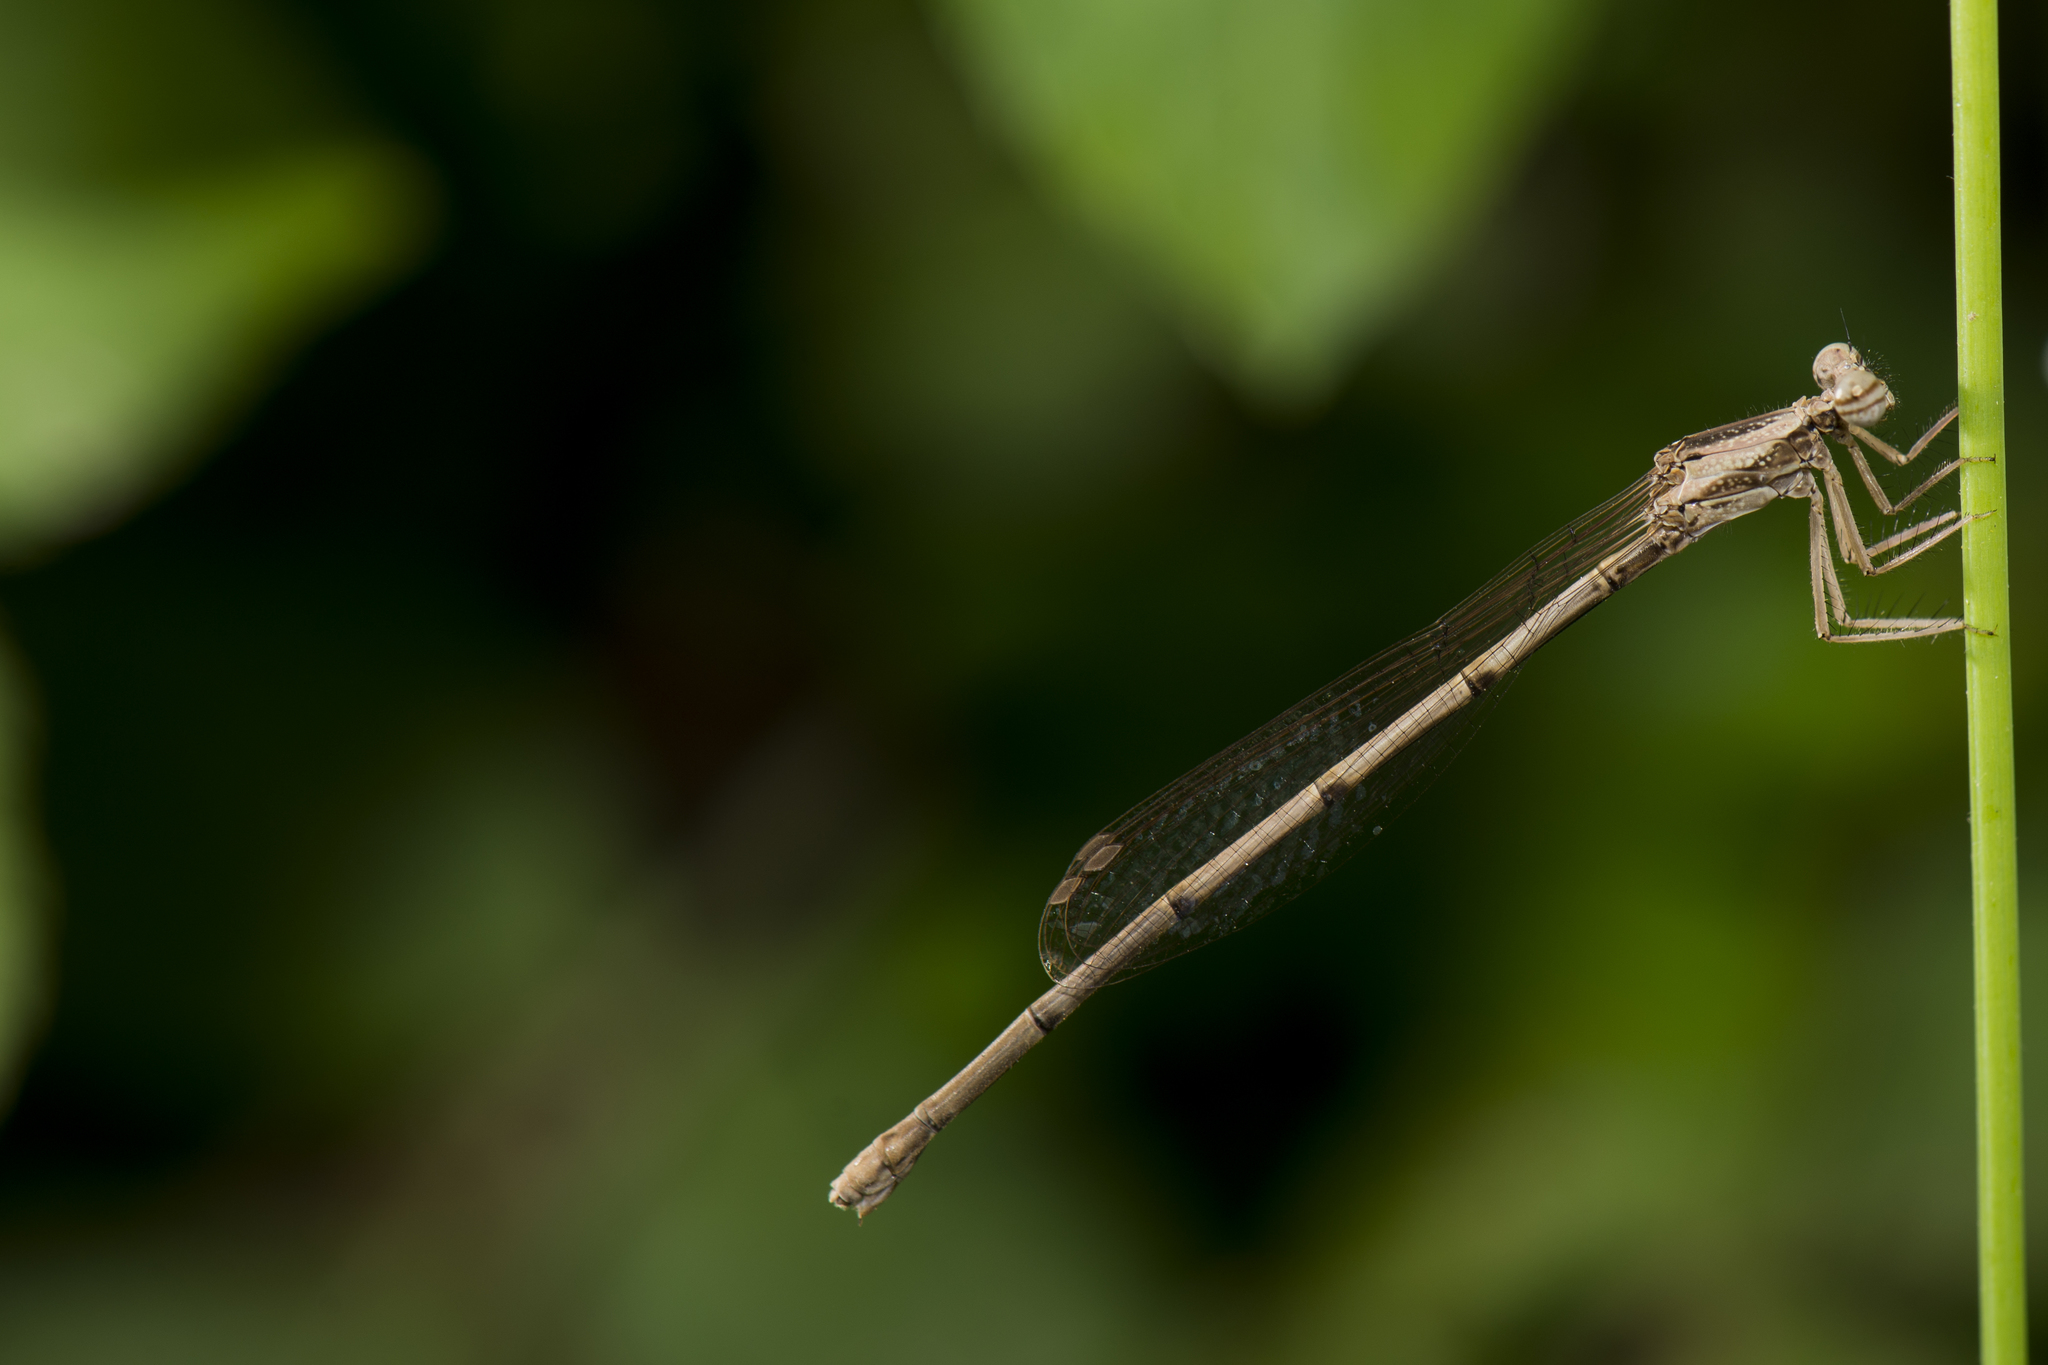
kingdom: Animalia
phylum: Arthropoda
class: Insecta
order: Odonata
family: Platycnemididae
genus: Copera
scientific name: Copera marginipes
